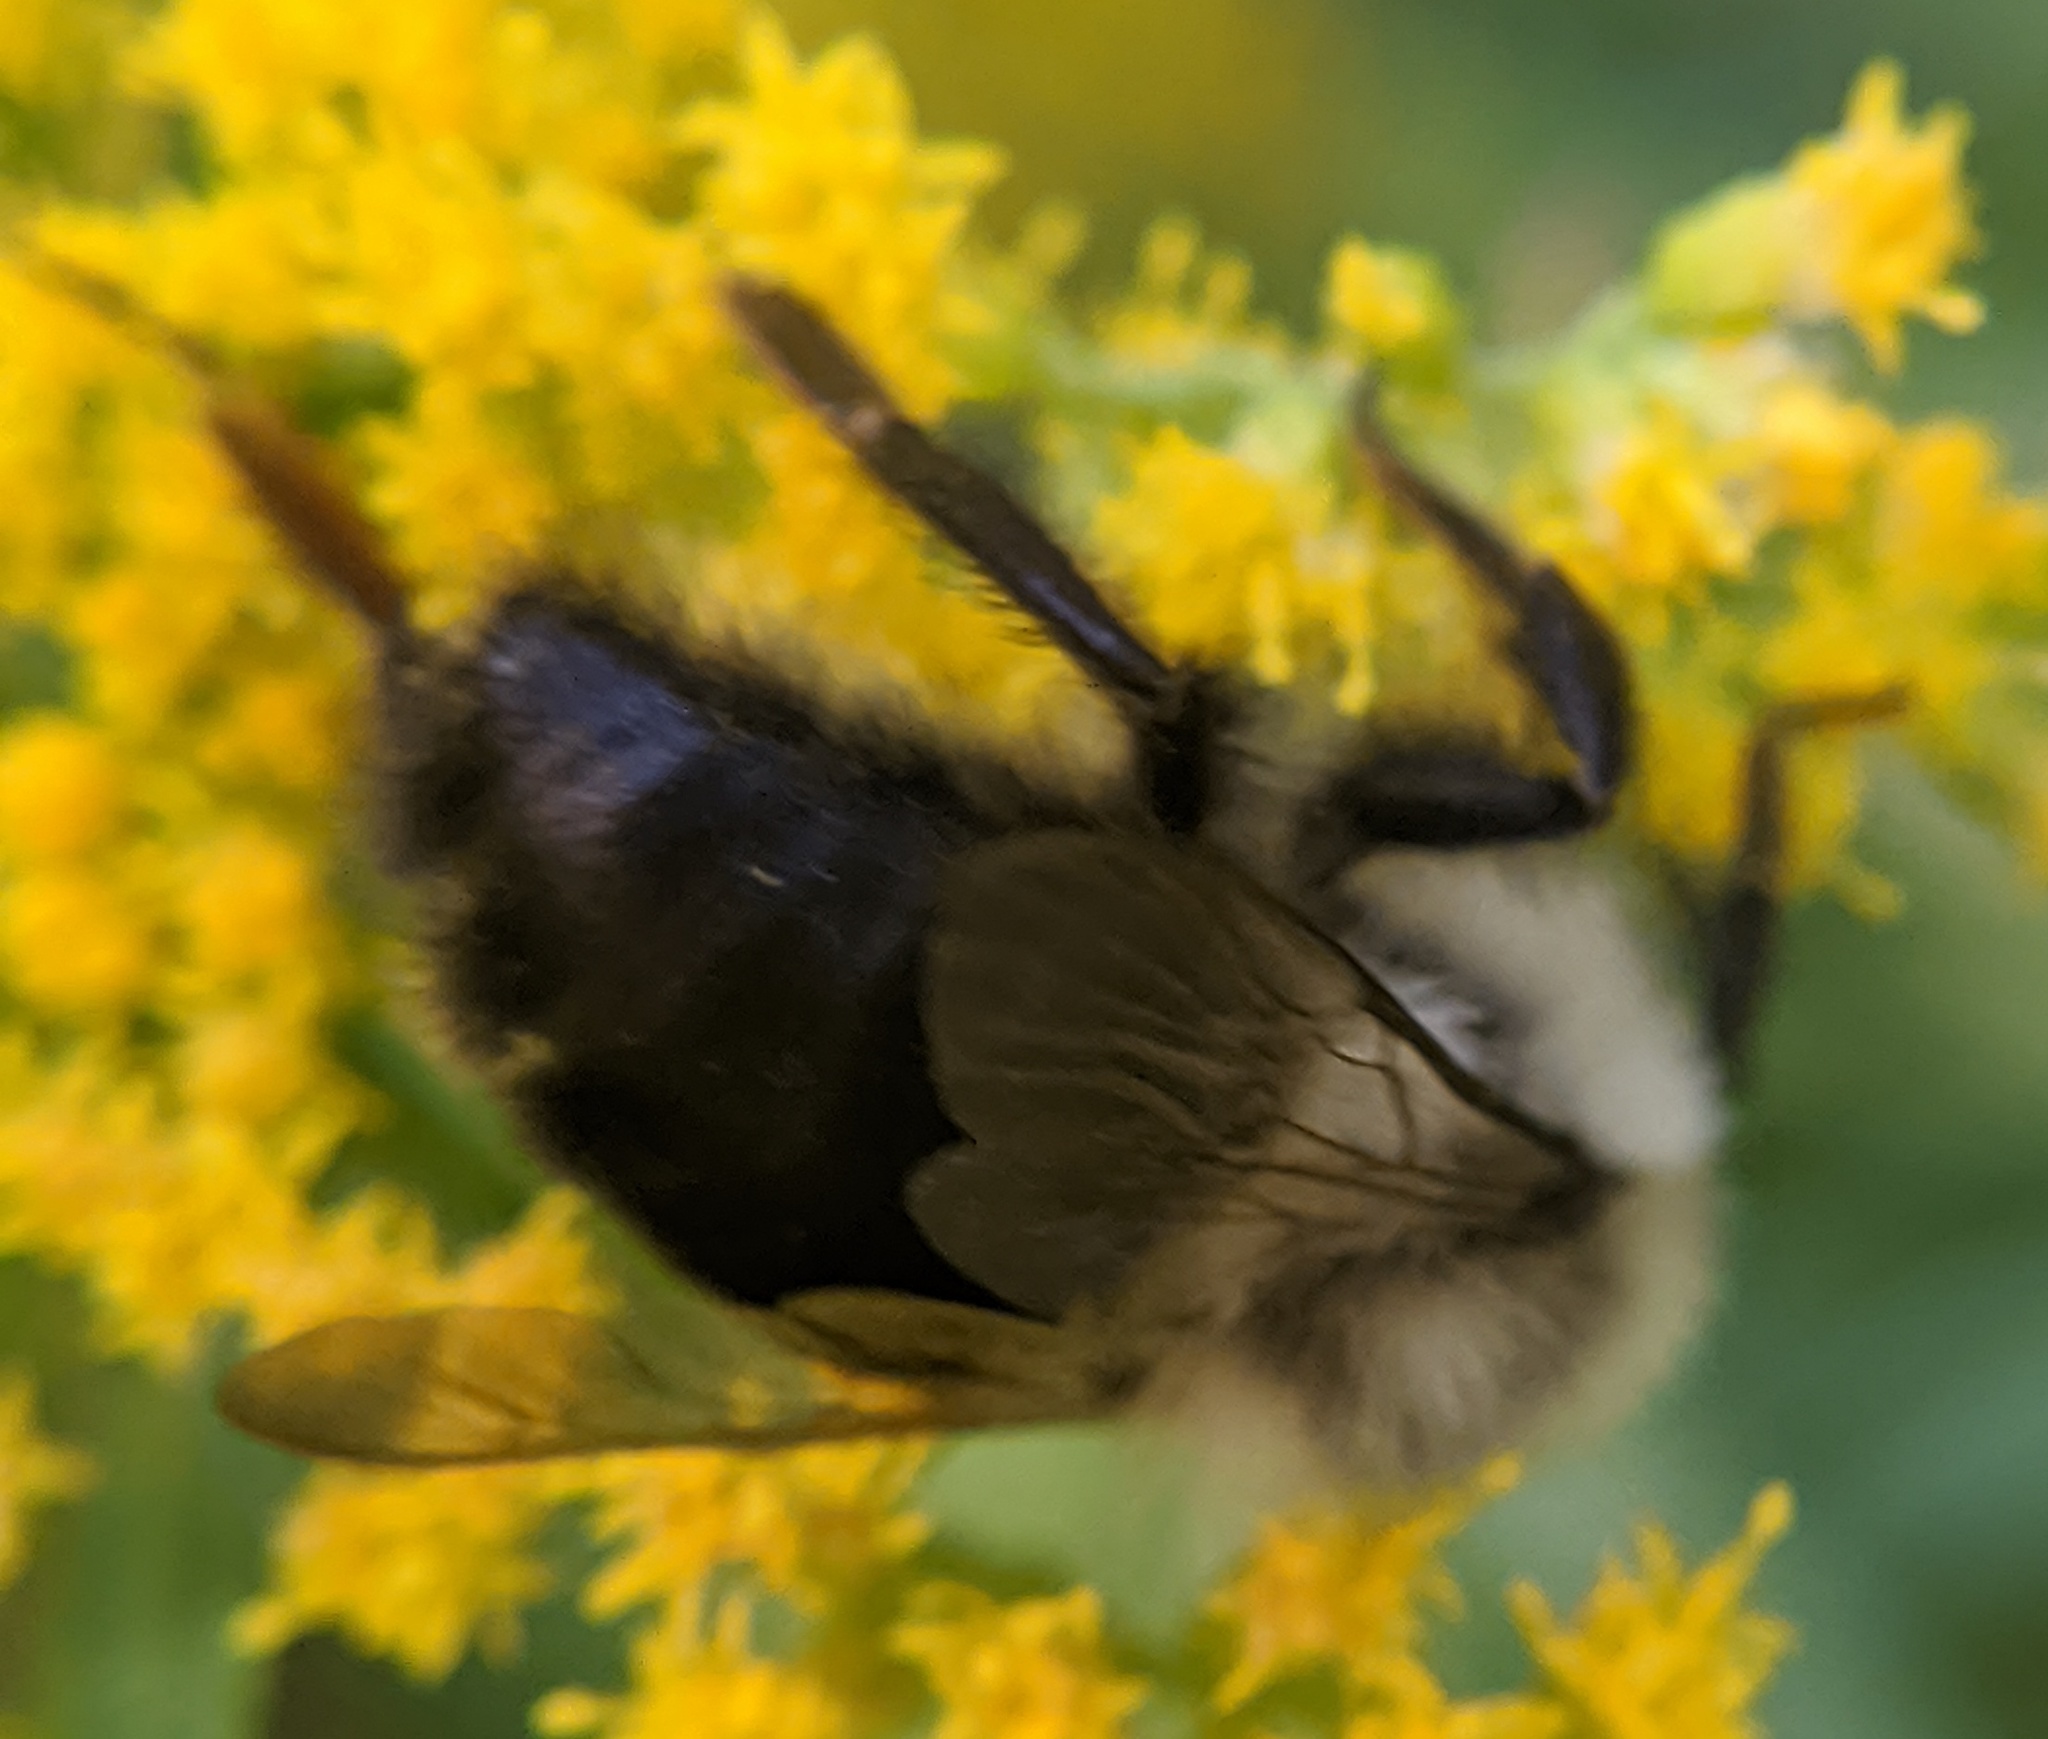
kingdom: Animalia
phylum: Arthropoda
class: Insecta
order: Hymenoptera
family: Apidae
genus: Bombus
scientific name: Bombus impatiens
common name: Common eastern bumble bee
